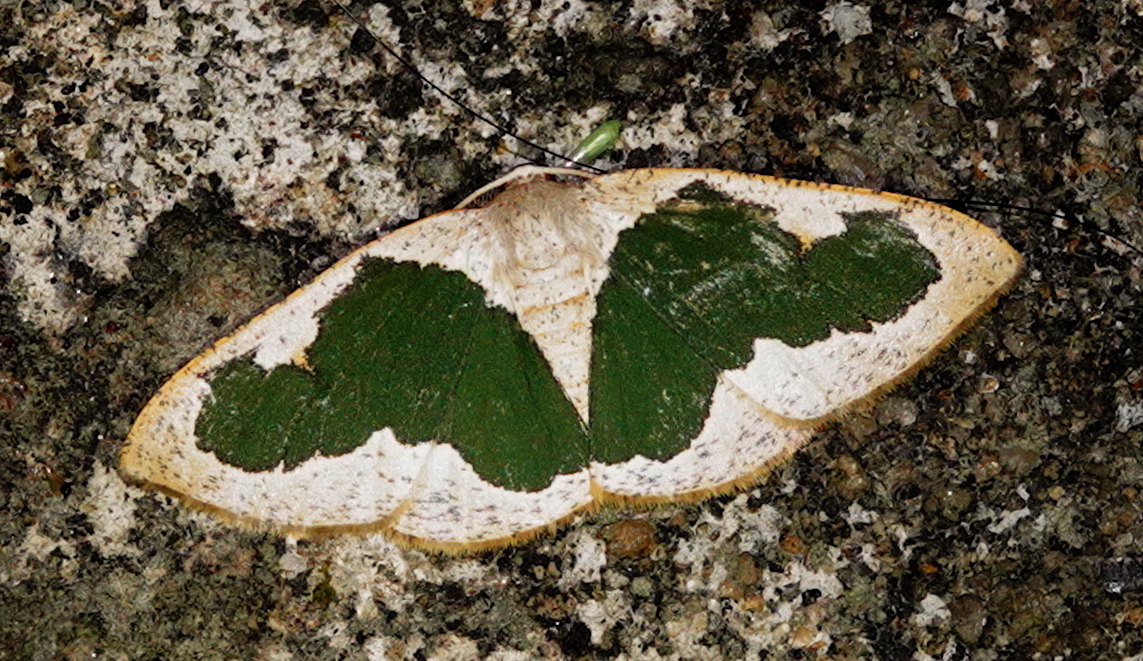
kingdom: Animalia
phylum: Arthropoda
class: Insecta
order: Lepidoptera
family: Geometridae
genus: Celenna
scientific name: Celenna festivaria
